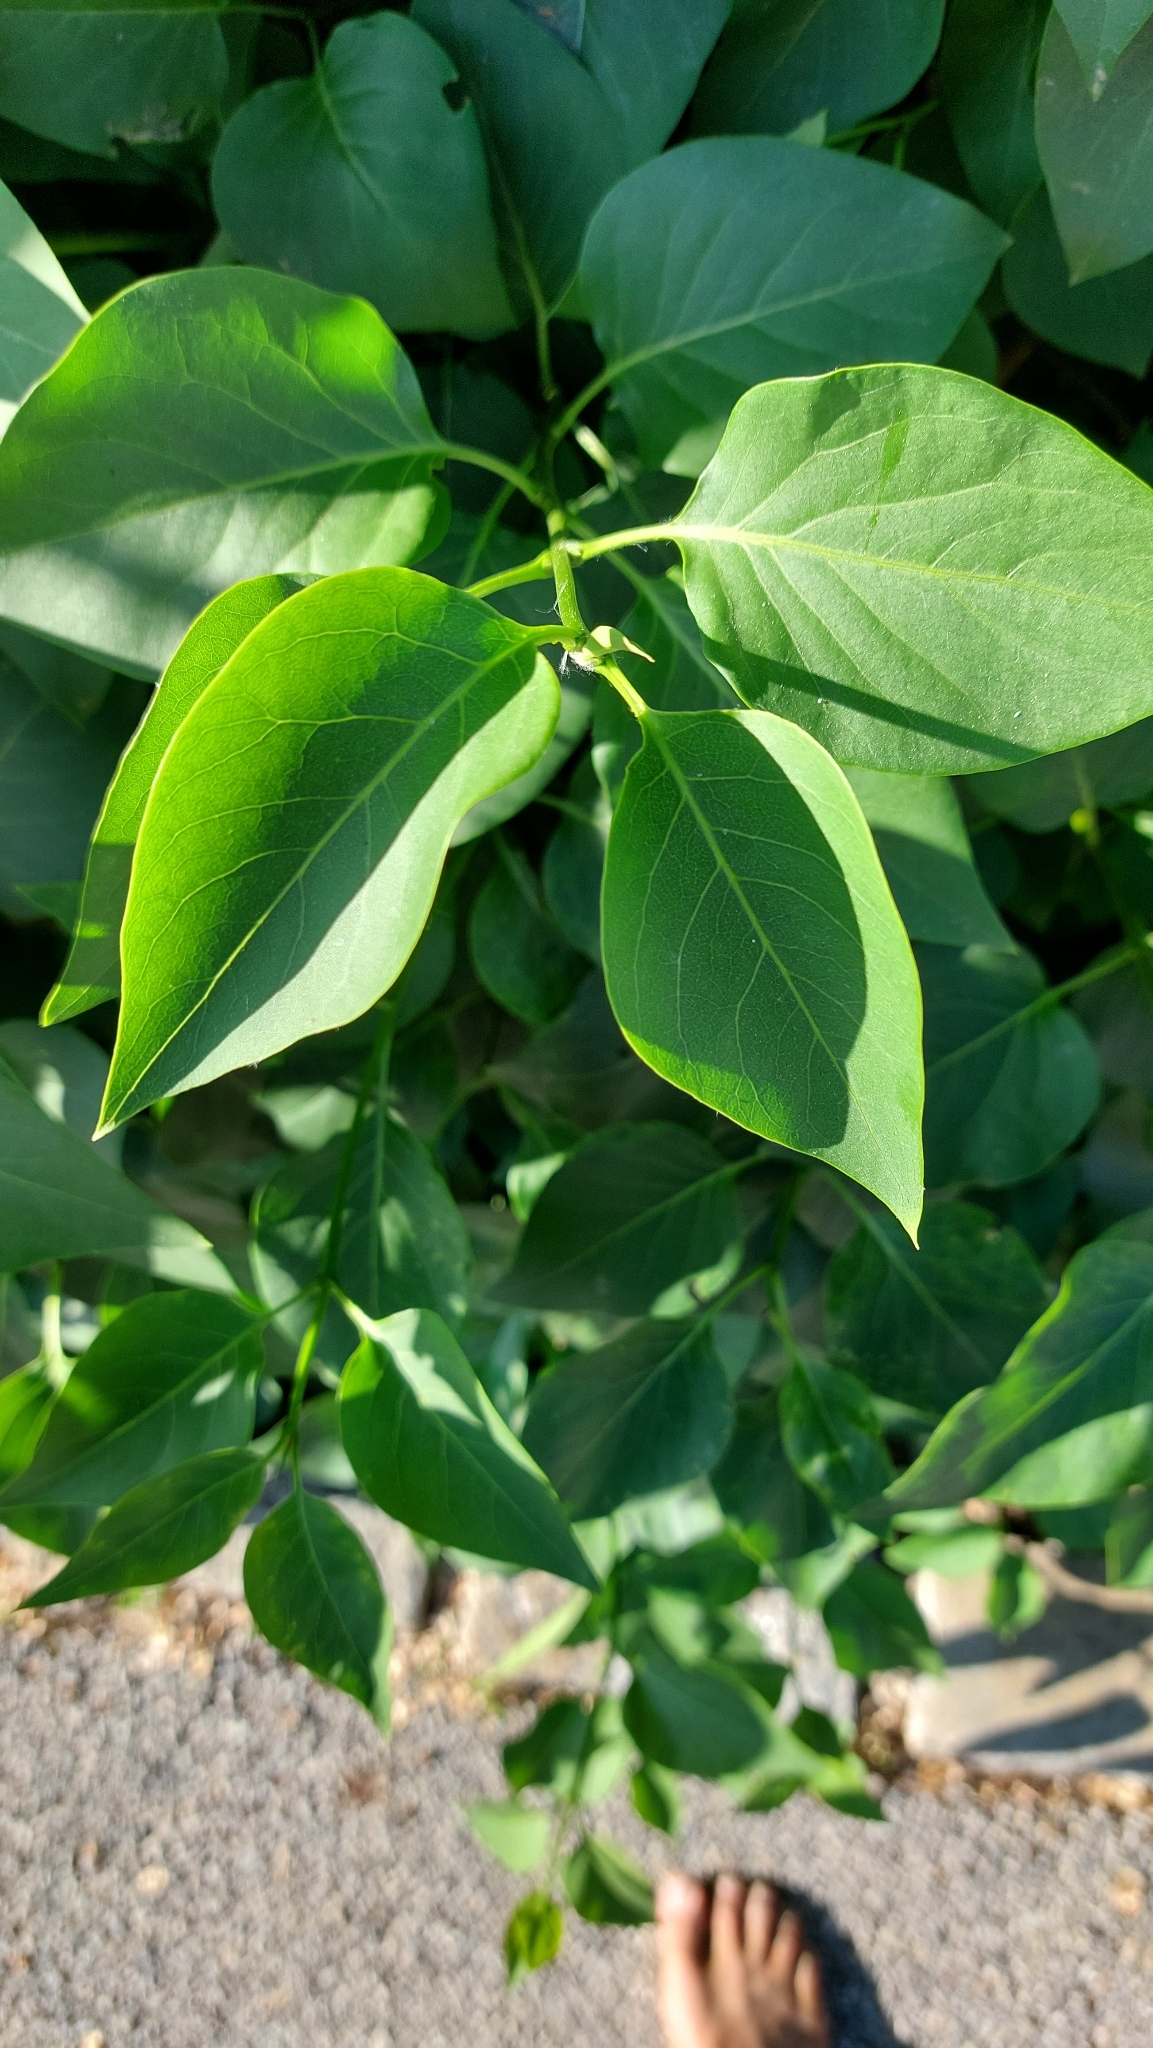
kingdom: Plantae
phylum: Tracheophyta
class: Magnoliopsida
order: Lamiales
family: Oleaceae
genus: Syringa
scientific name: Syringa vulgaris
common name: Common lilac
